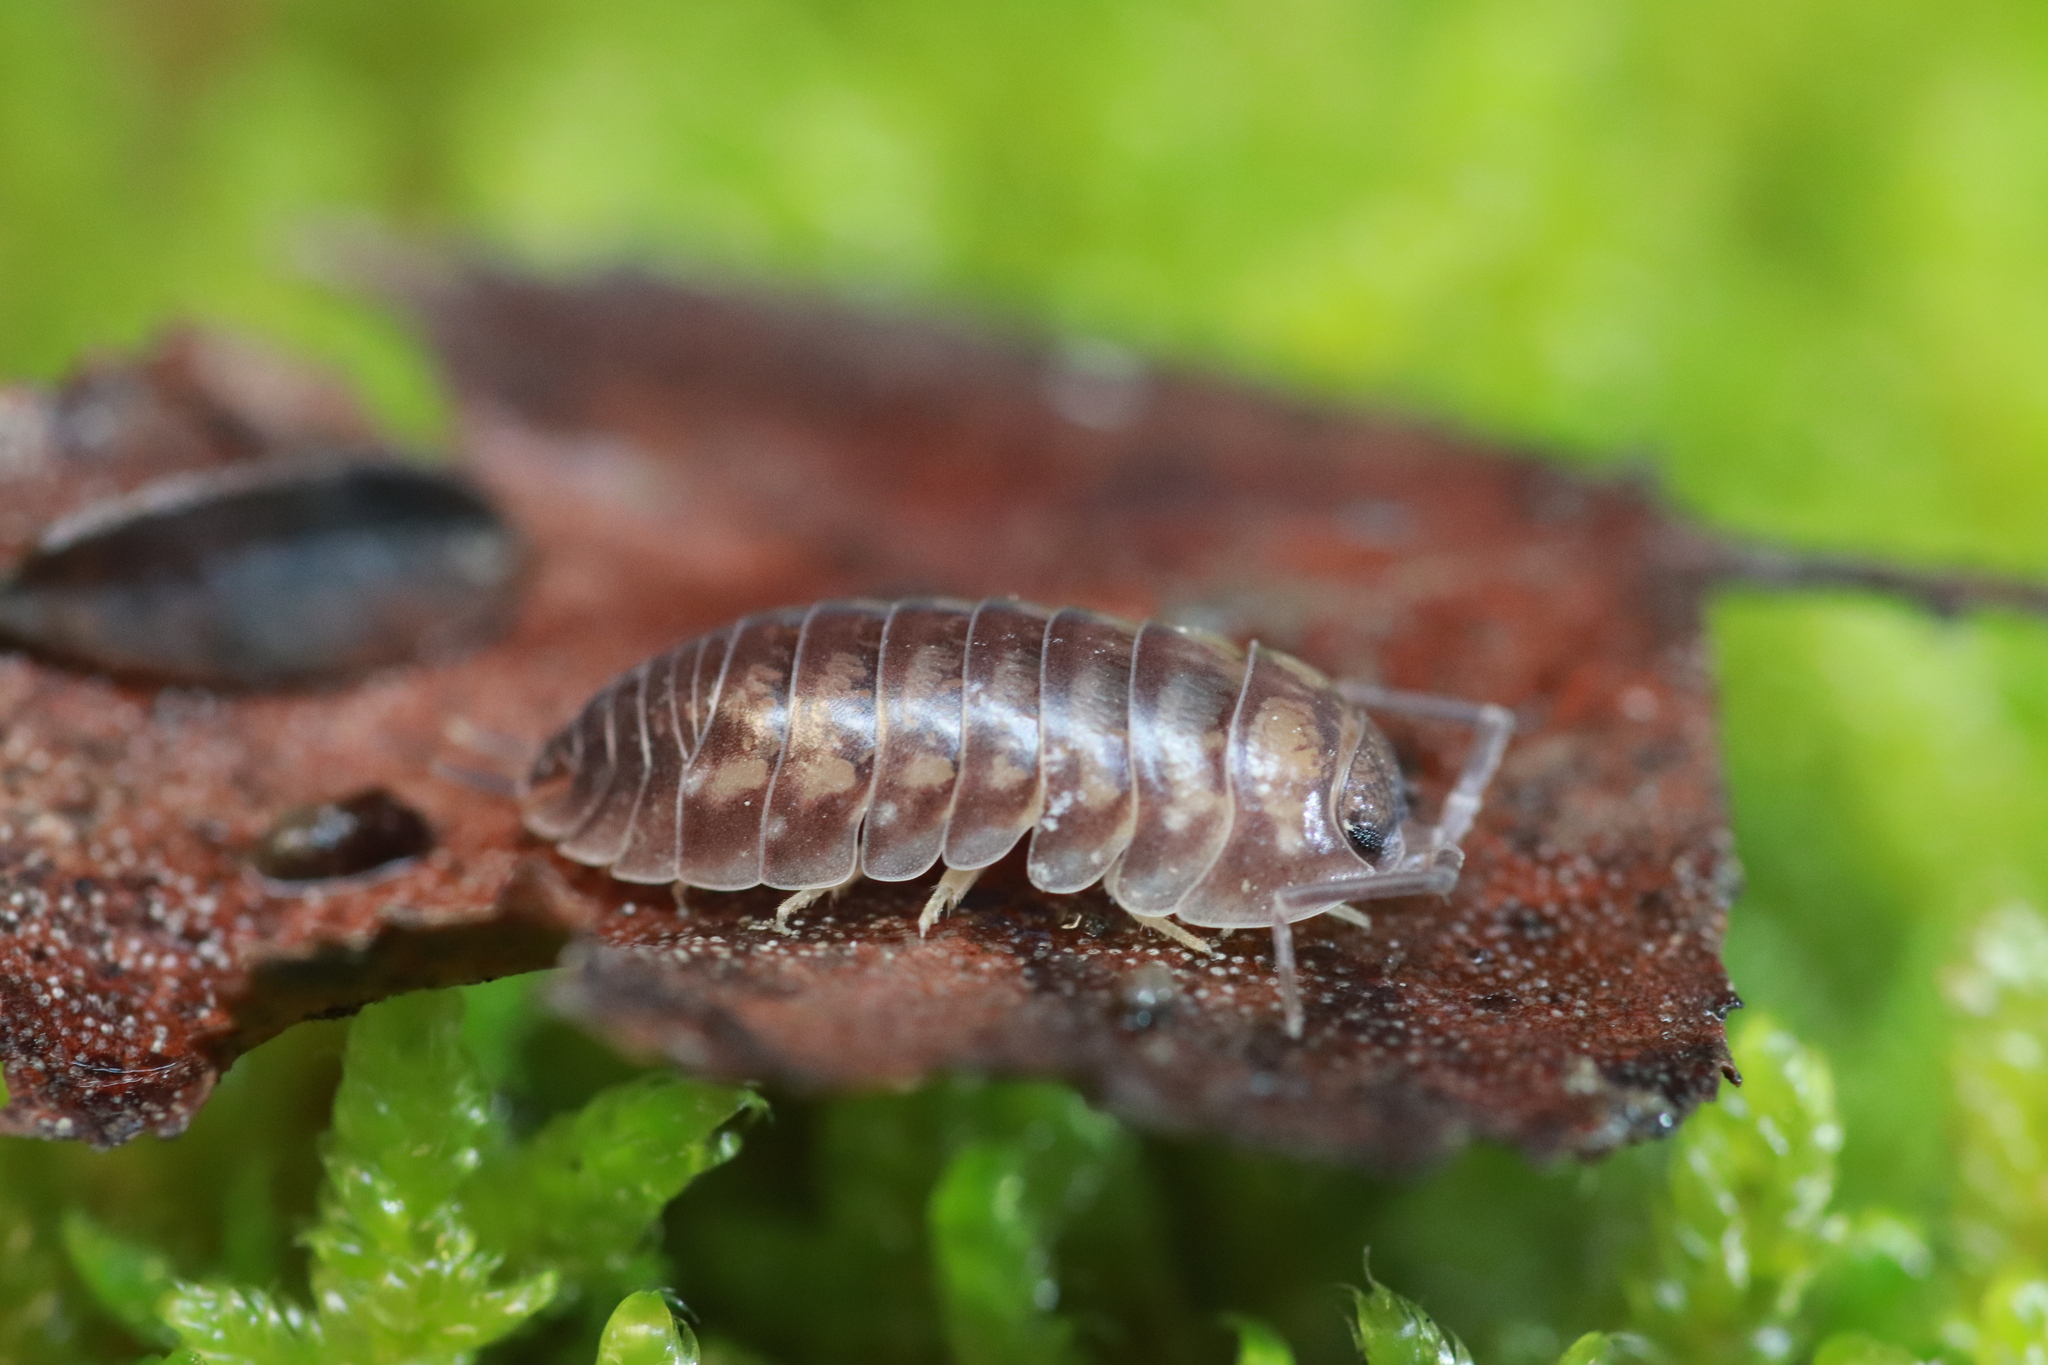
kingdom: Animalia
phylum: Arthropoda
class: Malacostraca
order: Isopoda
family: Cylisticidae
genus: Cylisticus
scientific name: Cylisticus convexus
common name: Curly woodlouse
